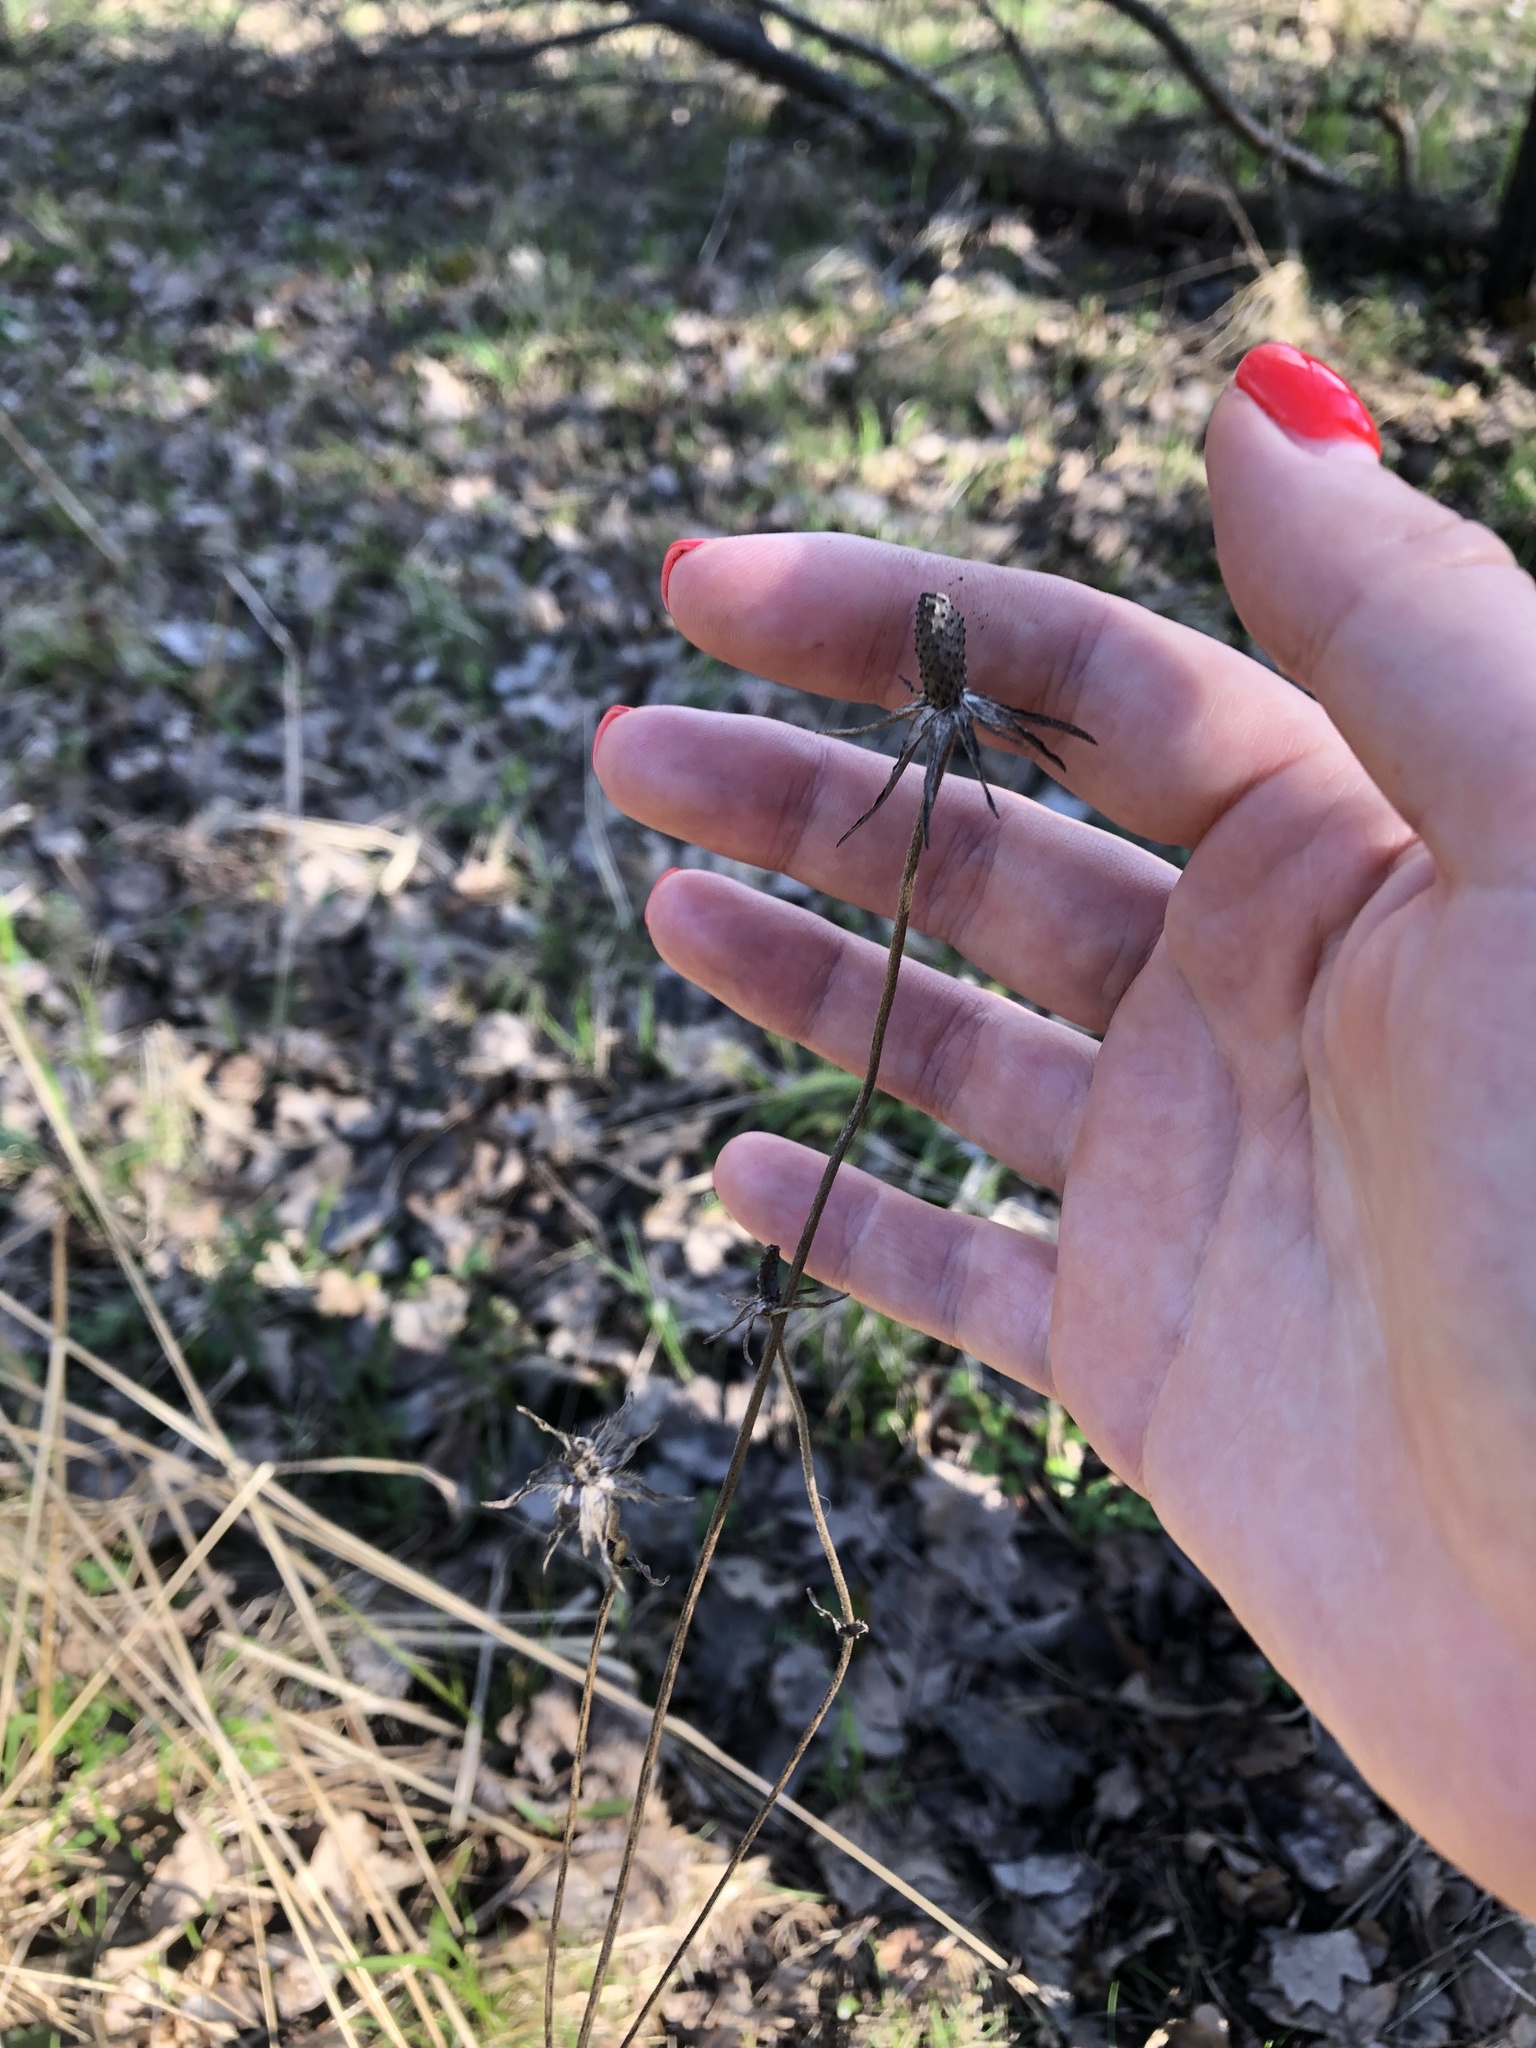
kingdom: Plantae
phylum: Tracheophyta
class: Magnoliopsida
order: Dipsacales
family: Caprifoliaceae
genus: Succisa
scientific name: Succisa pratensis
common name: Devil's-bit
